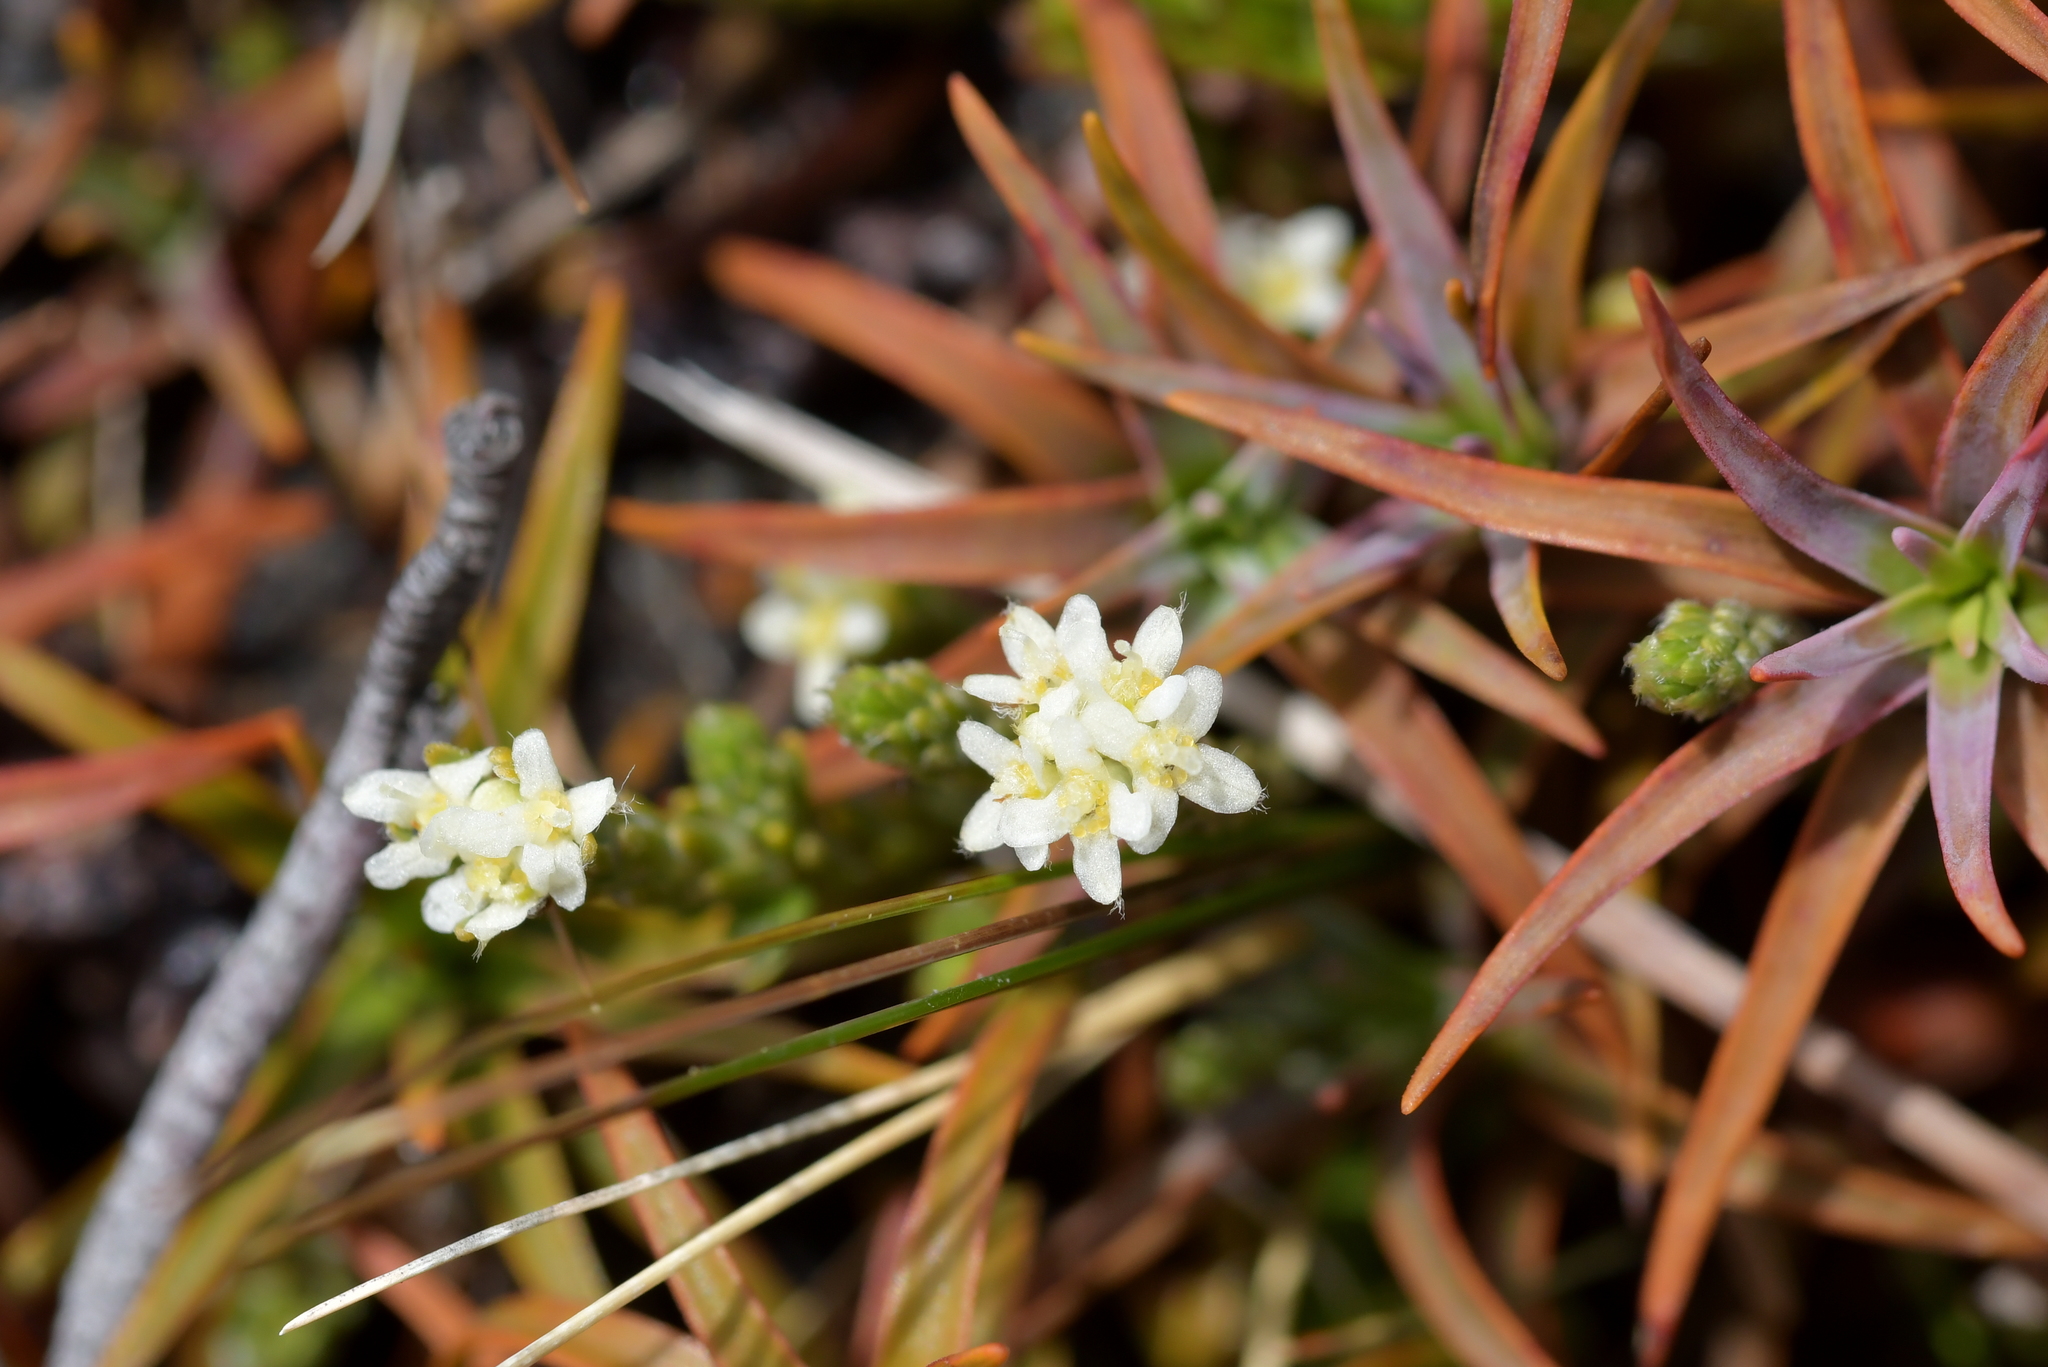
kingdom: Plantae
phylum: Tracheophyta
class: Magnoliopsida
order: Malvales
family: Thymelaeaceae
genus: Kelleria
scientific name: Kelleria dieffenbachii
